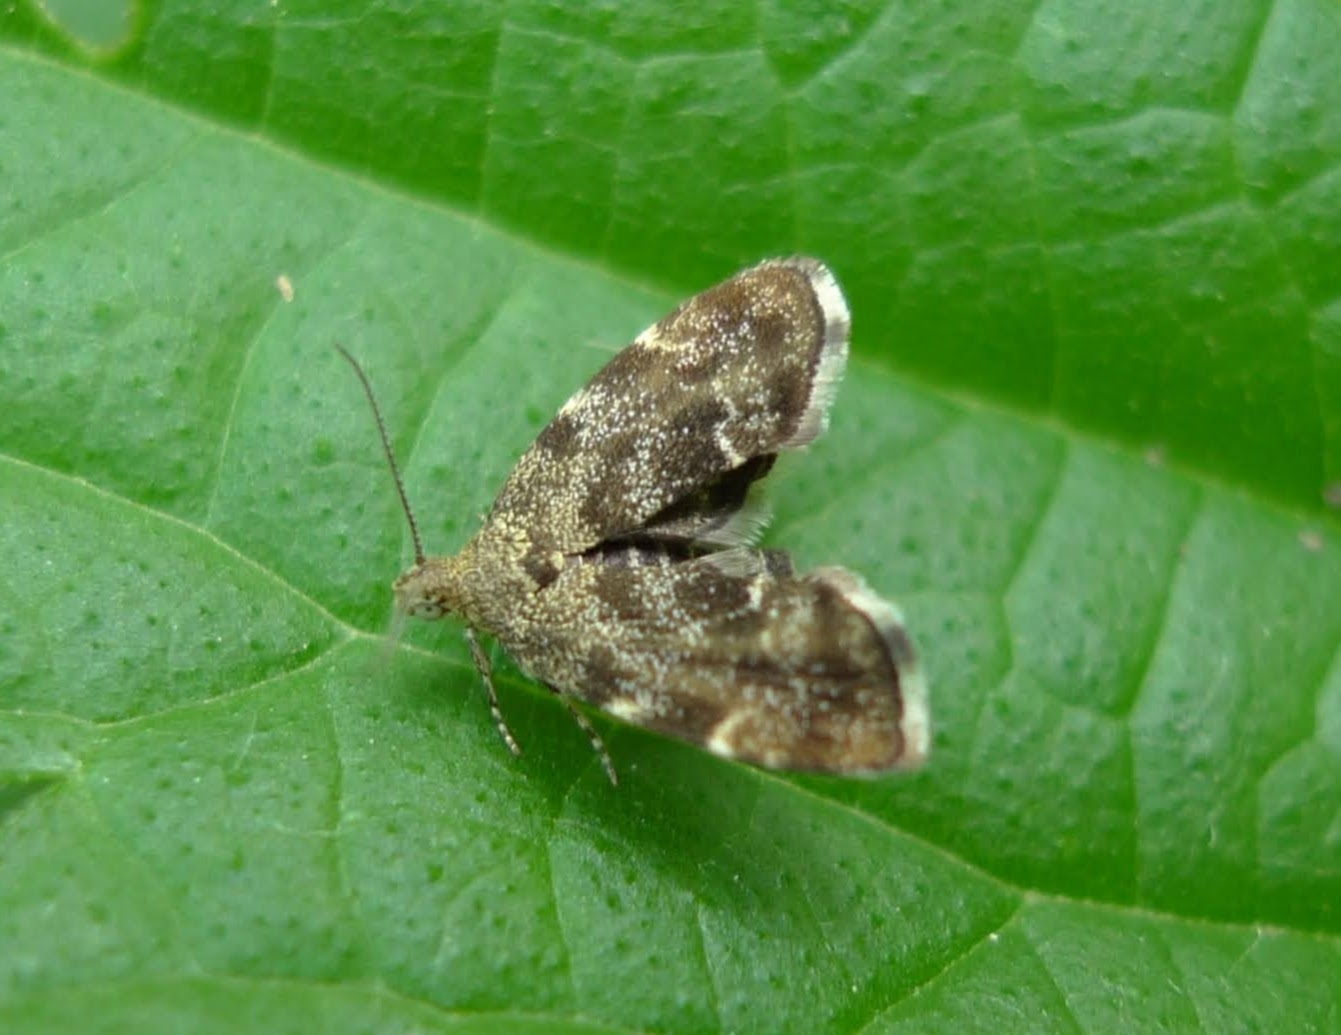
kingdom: Animalia
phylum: Arthropoda
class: Insecta
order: Lepidoptera
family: Choreutidae
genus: Anthophila
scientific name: Anthophila fabriciana
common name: Nettle-tap
